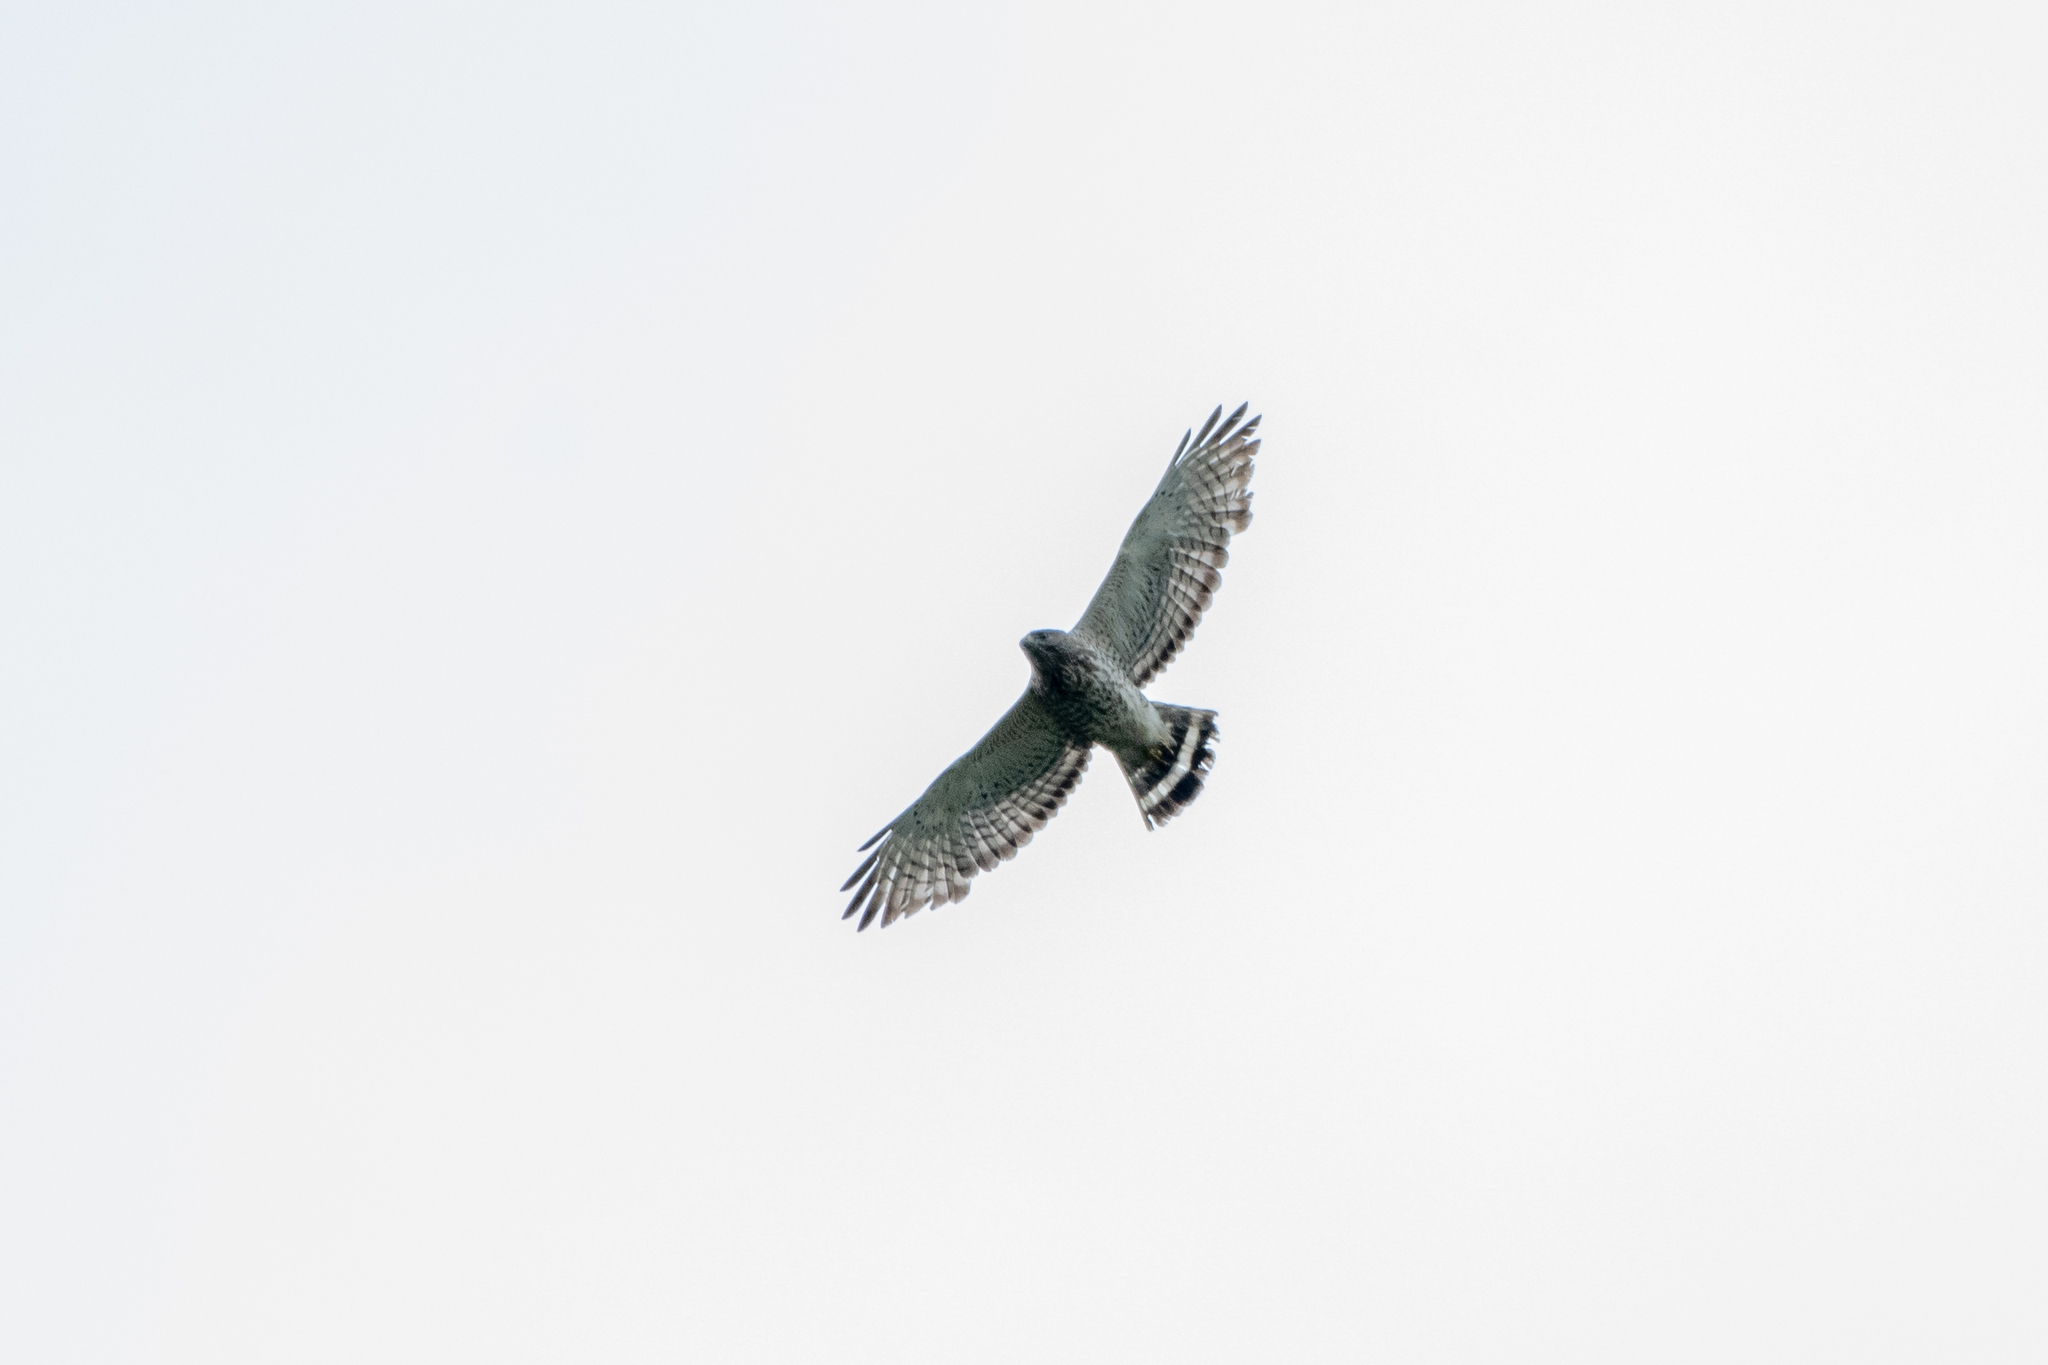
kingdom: Animalia
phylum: Chordata
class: Aves
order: Accipitriformes
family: Accipitridae
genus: Buteo
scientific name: Buteo platypterus
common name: Broad-winged hawk
